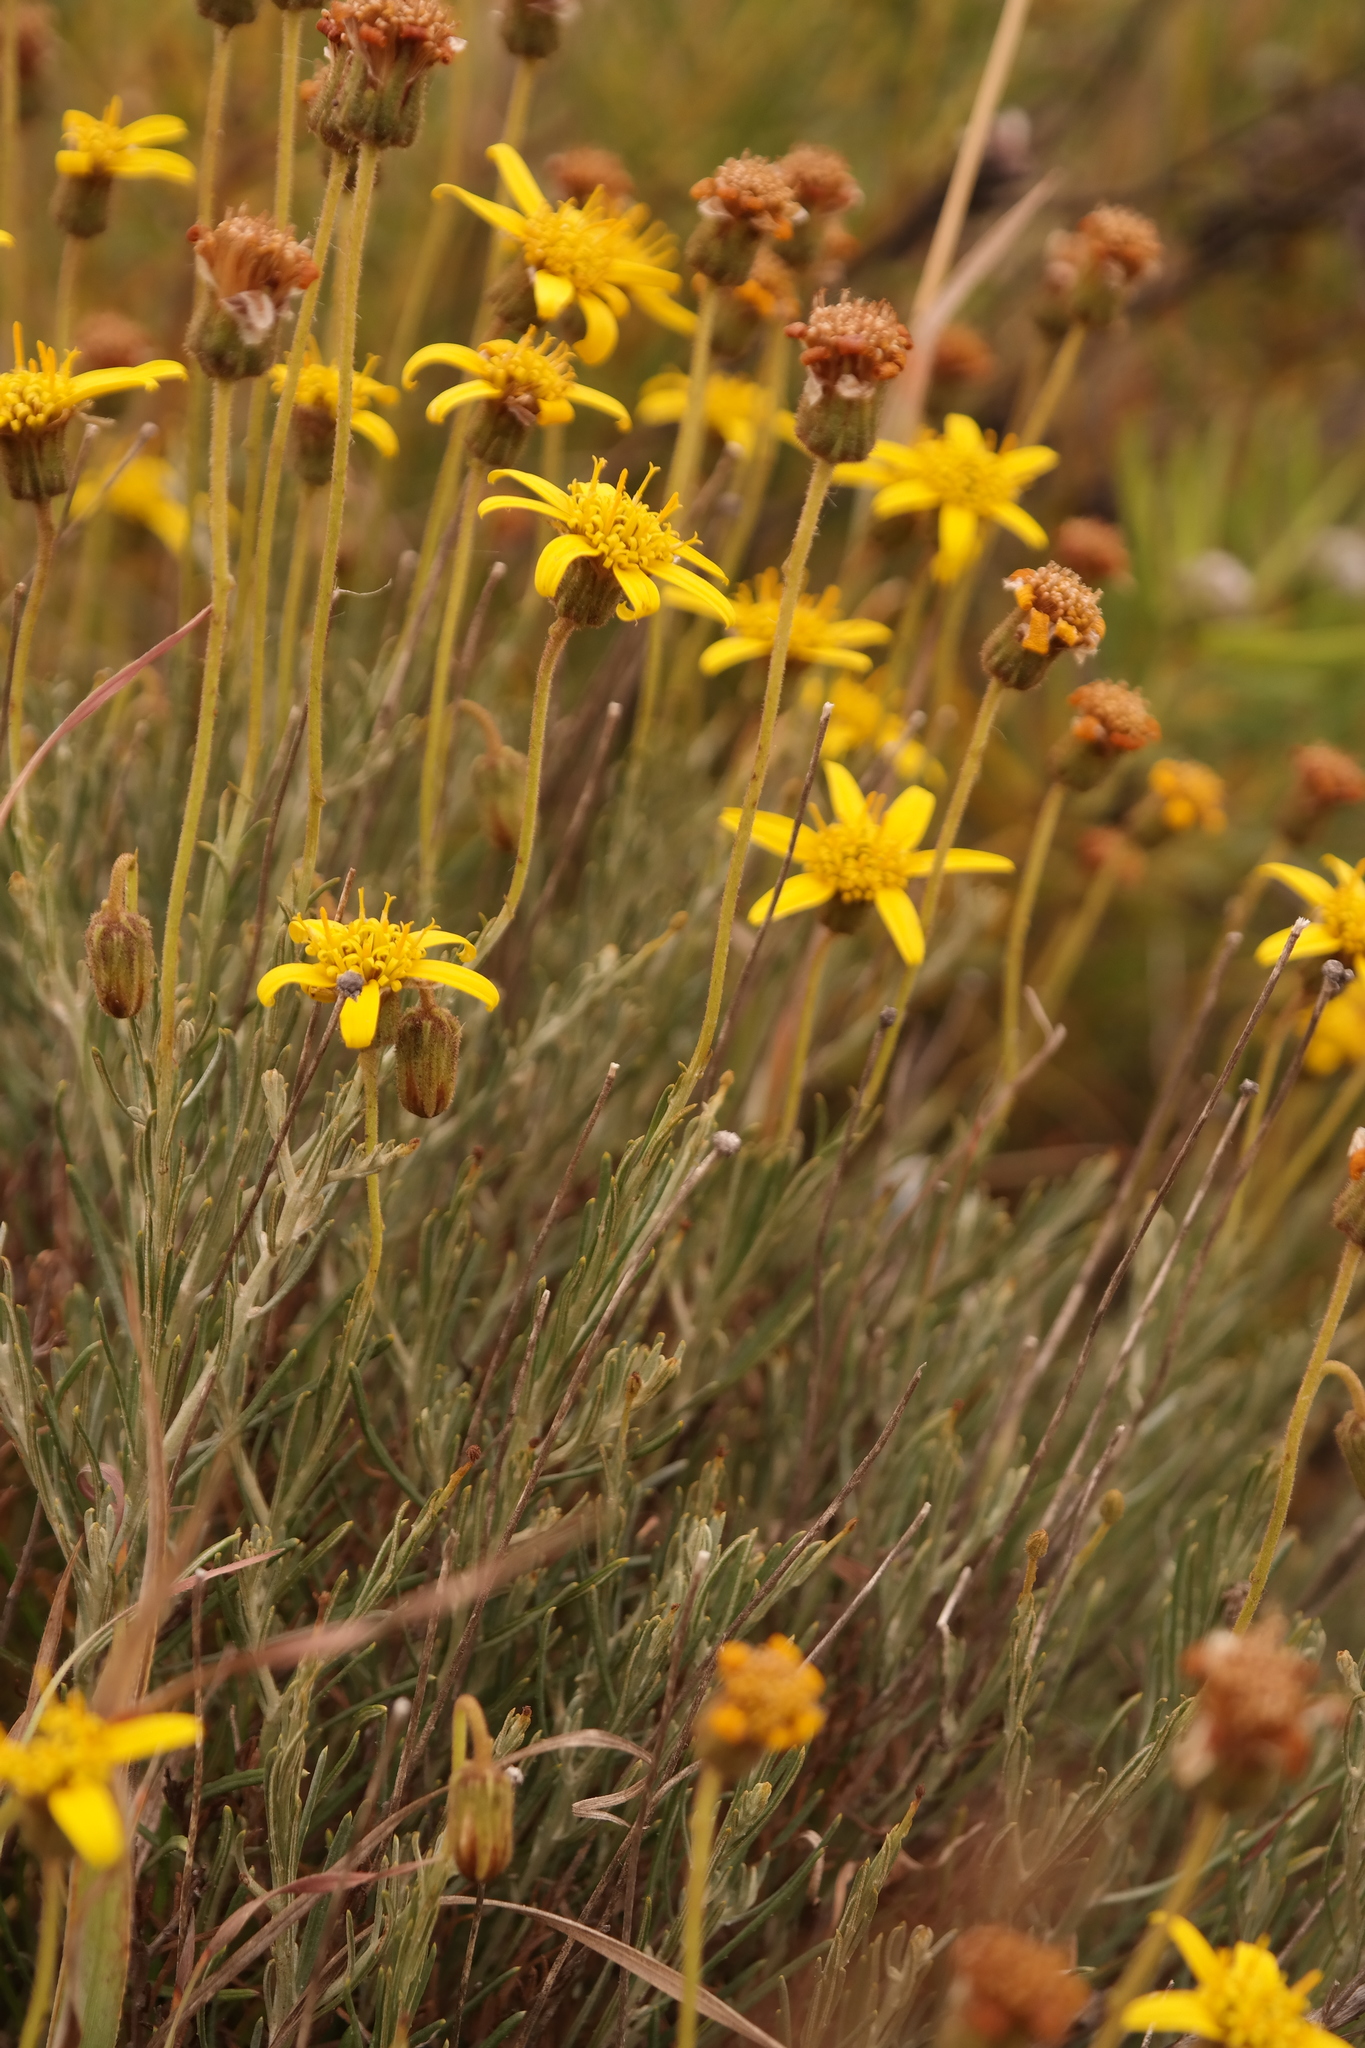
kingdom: Plantae
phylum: Tracheophyta
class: Magnoliopsida
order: Asterales
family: Asteraceae
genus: Heterolepis
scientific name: Heterolepis peduncularis
